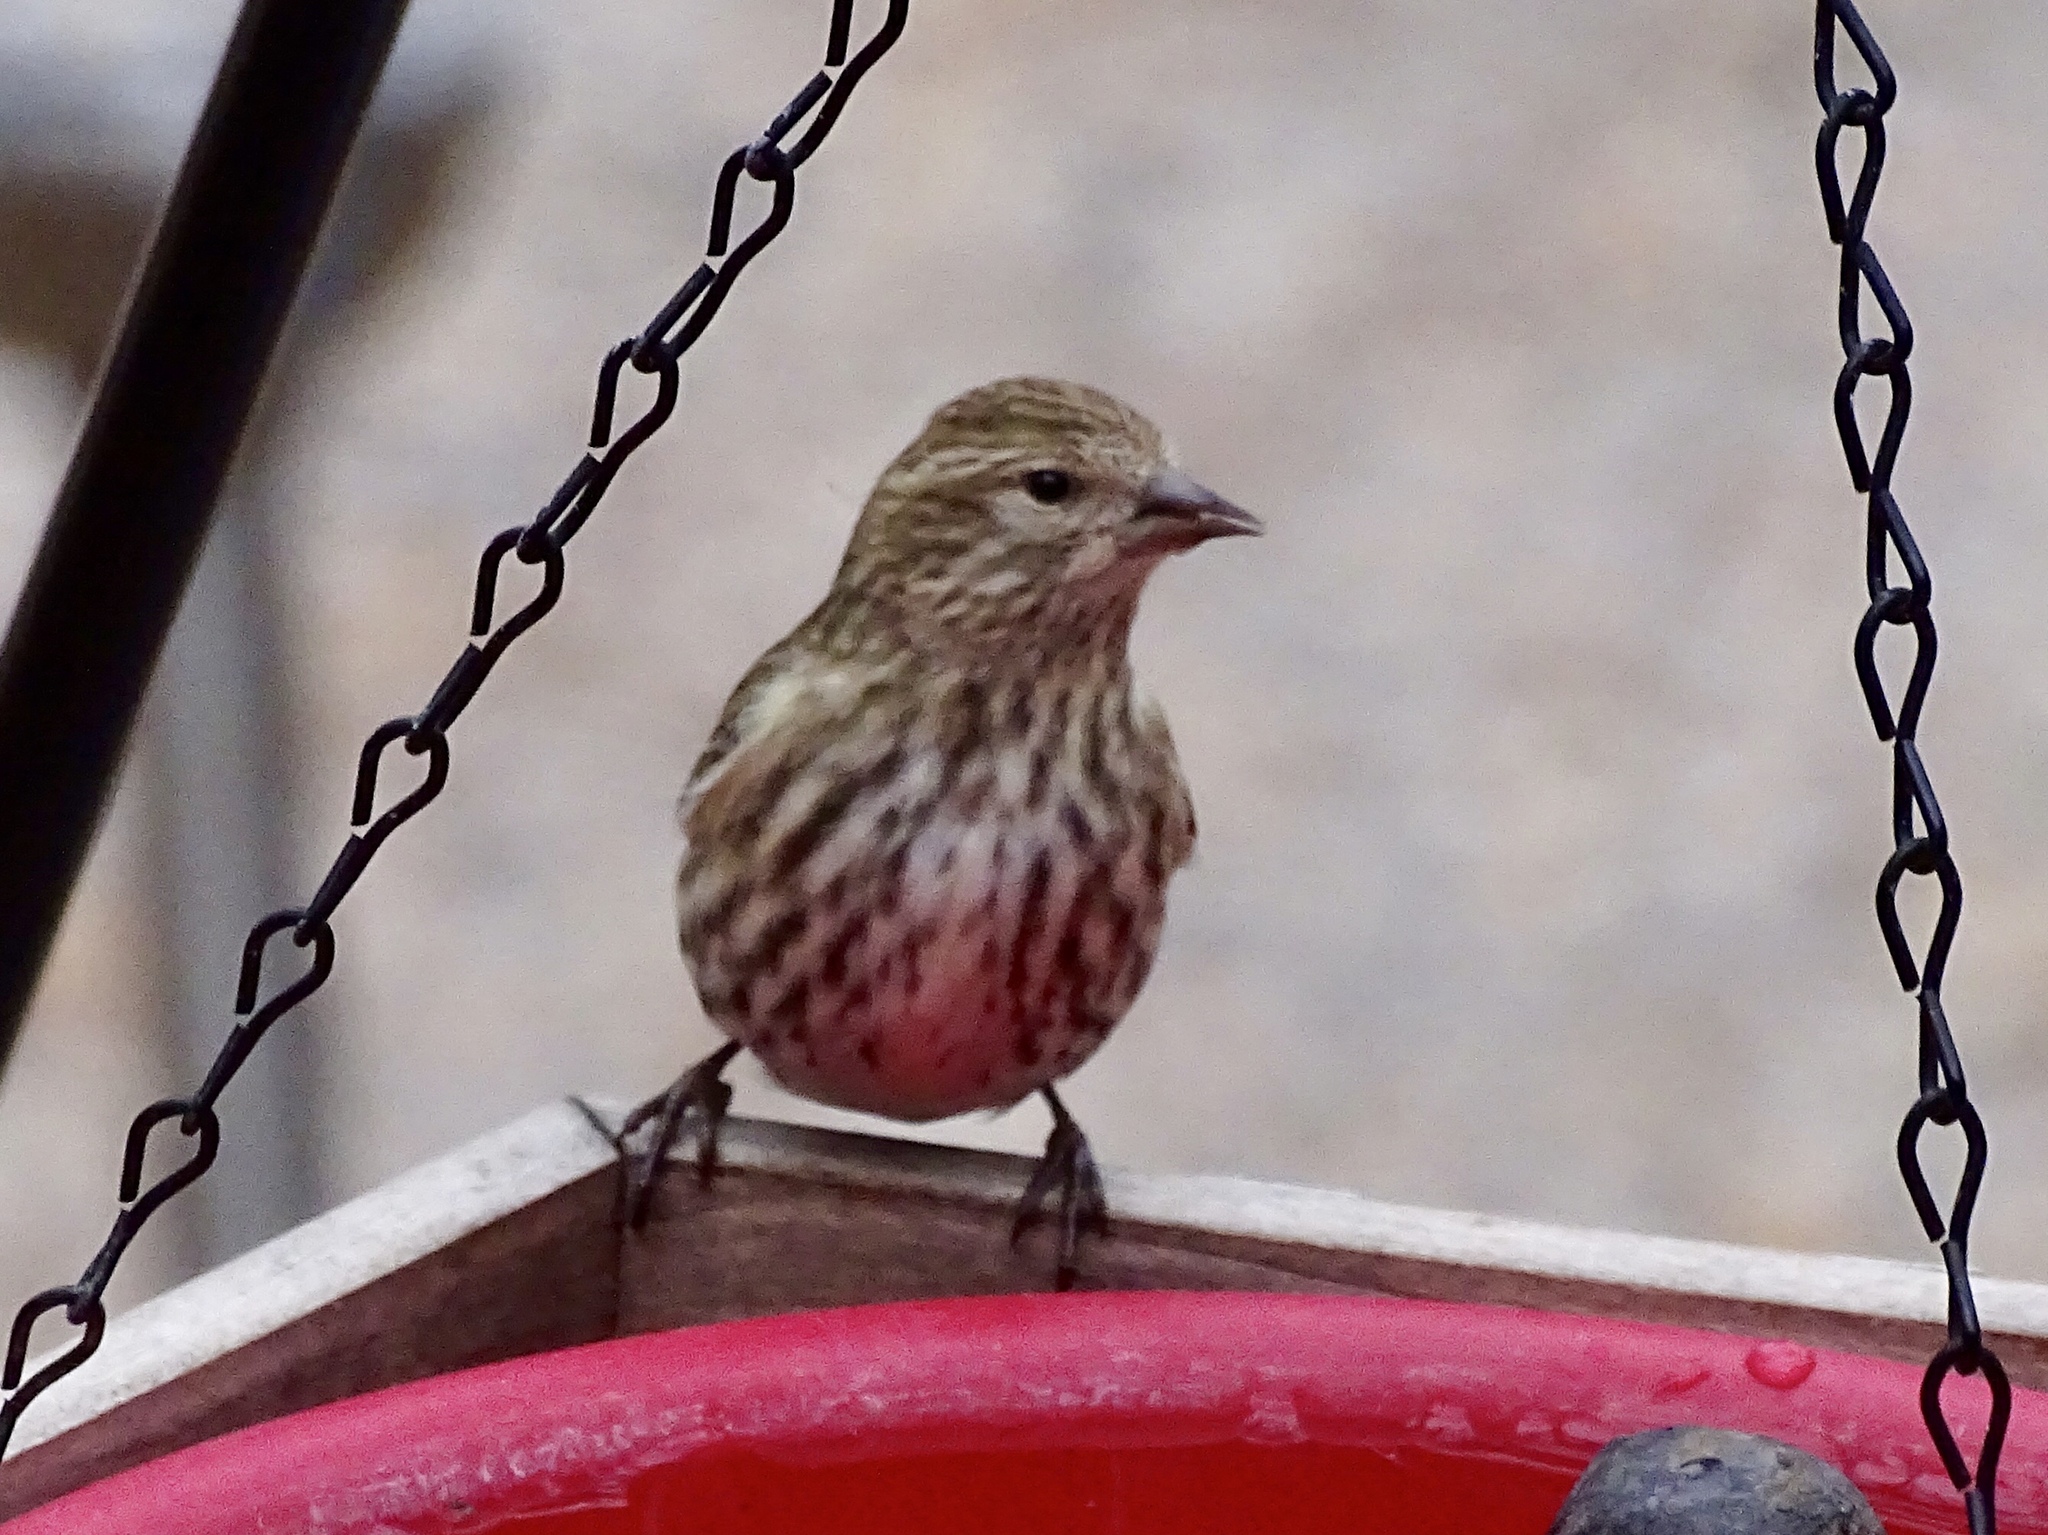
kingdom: Animalia
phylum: Chordata
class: Aves
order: Passeriformes
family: Fringillidae
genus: Spinus
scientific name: Spinus pinus
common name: Pine siskin
